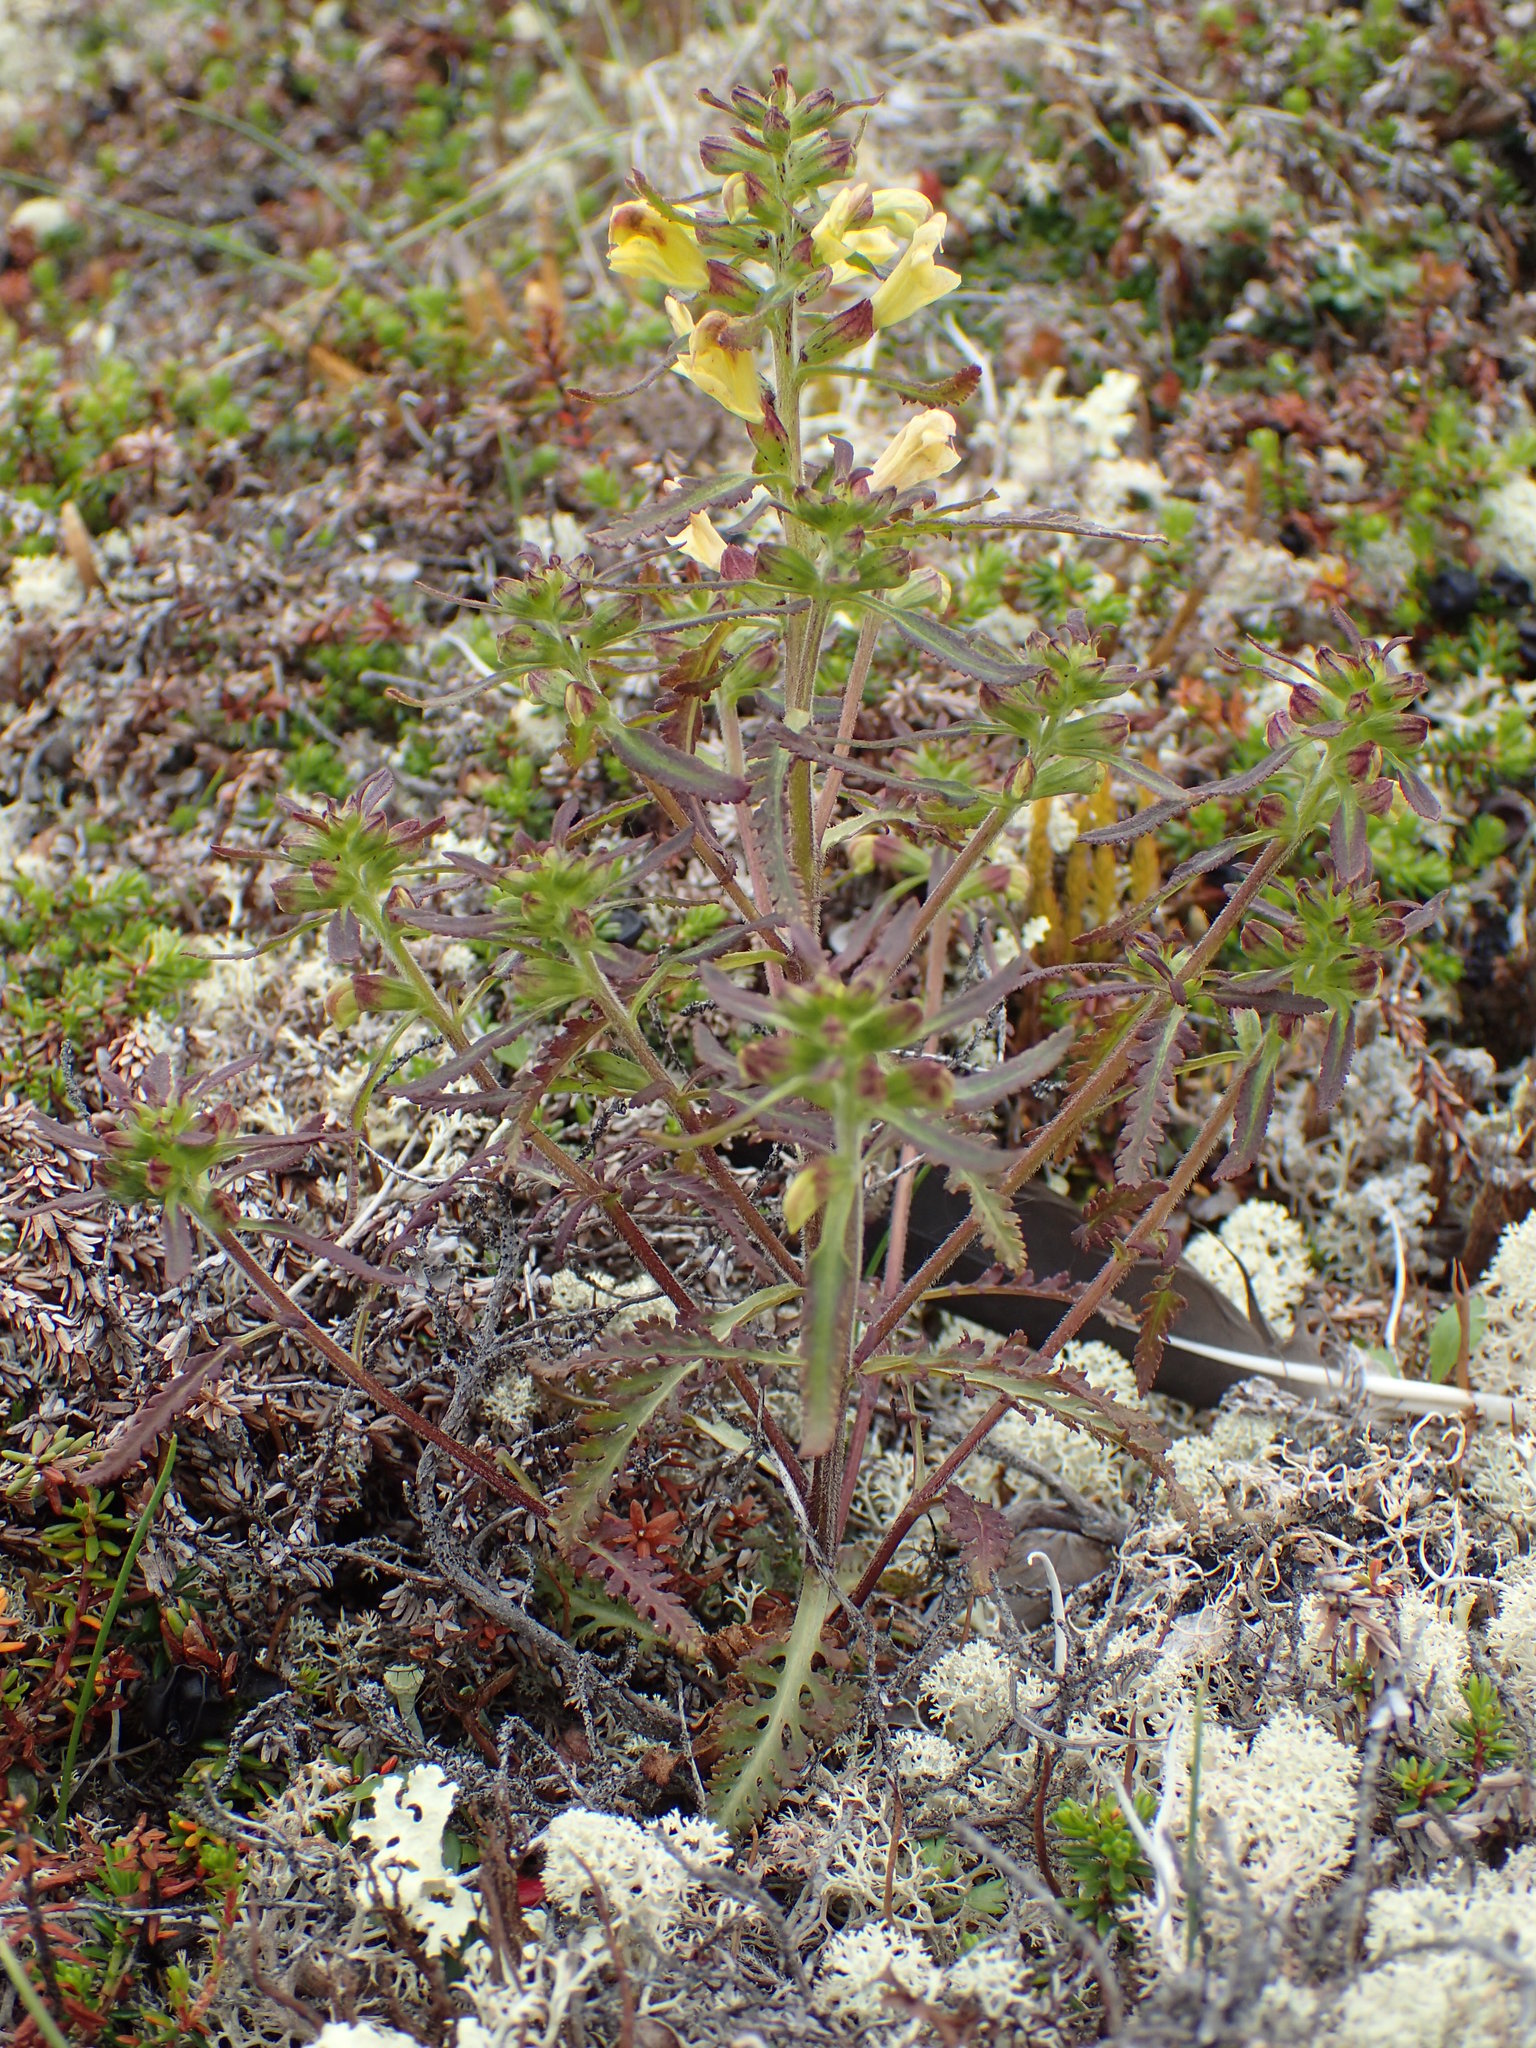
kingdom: Plantae
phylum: Tracheophyta
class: Magnoliopsida
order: Lamiales
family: Orobanchaceae
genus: Pedicularis
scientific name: Pedicularis labradorica
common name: Labrador lousewort
